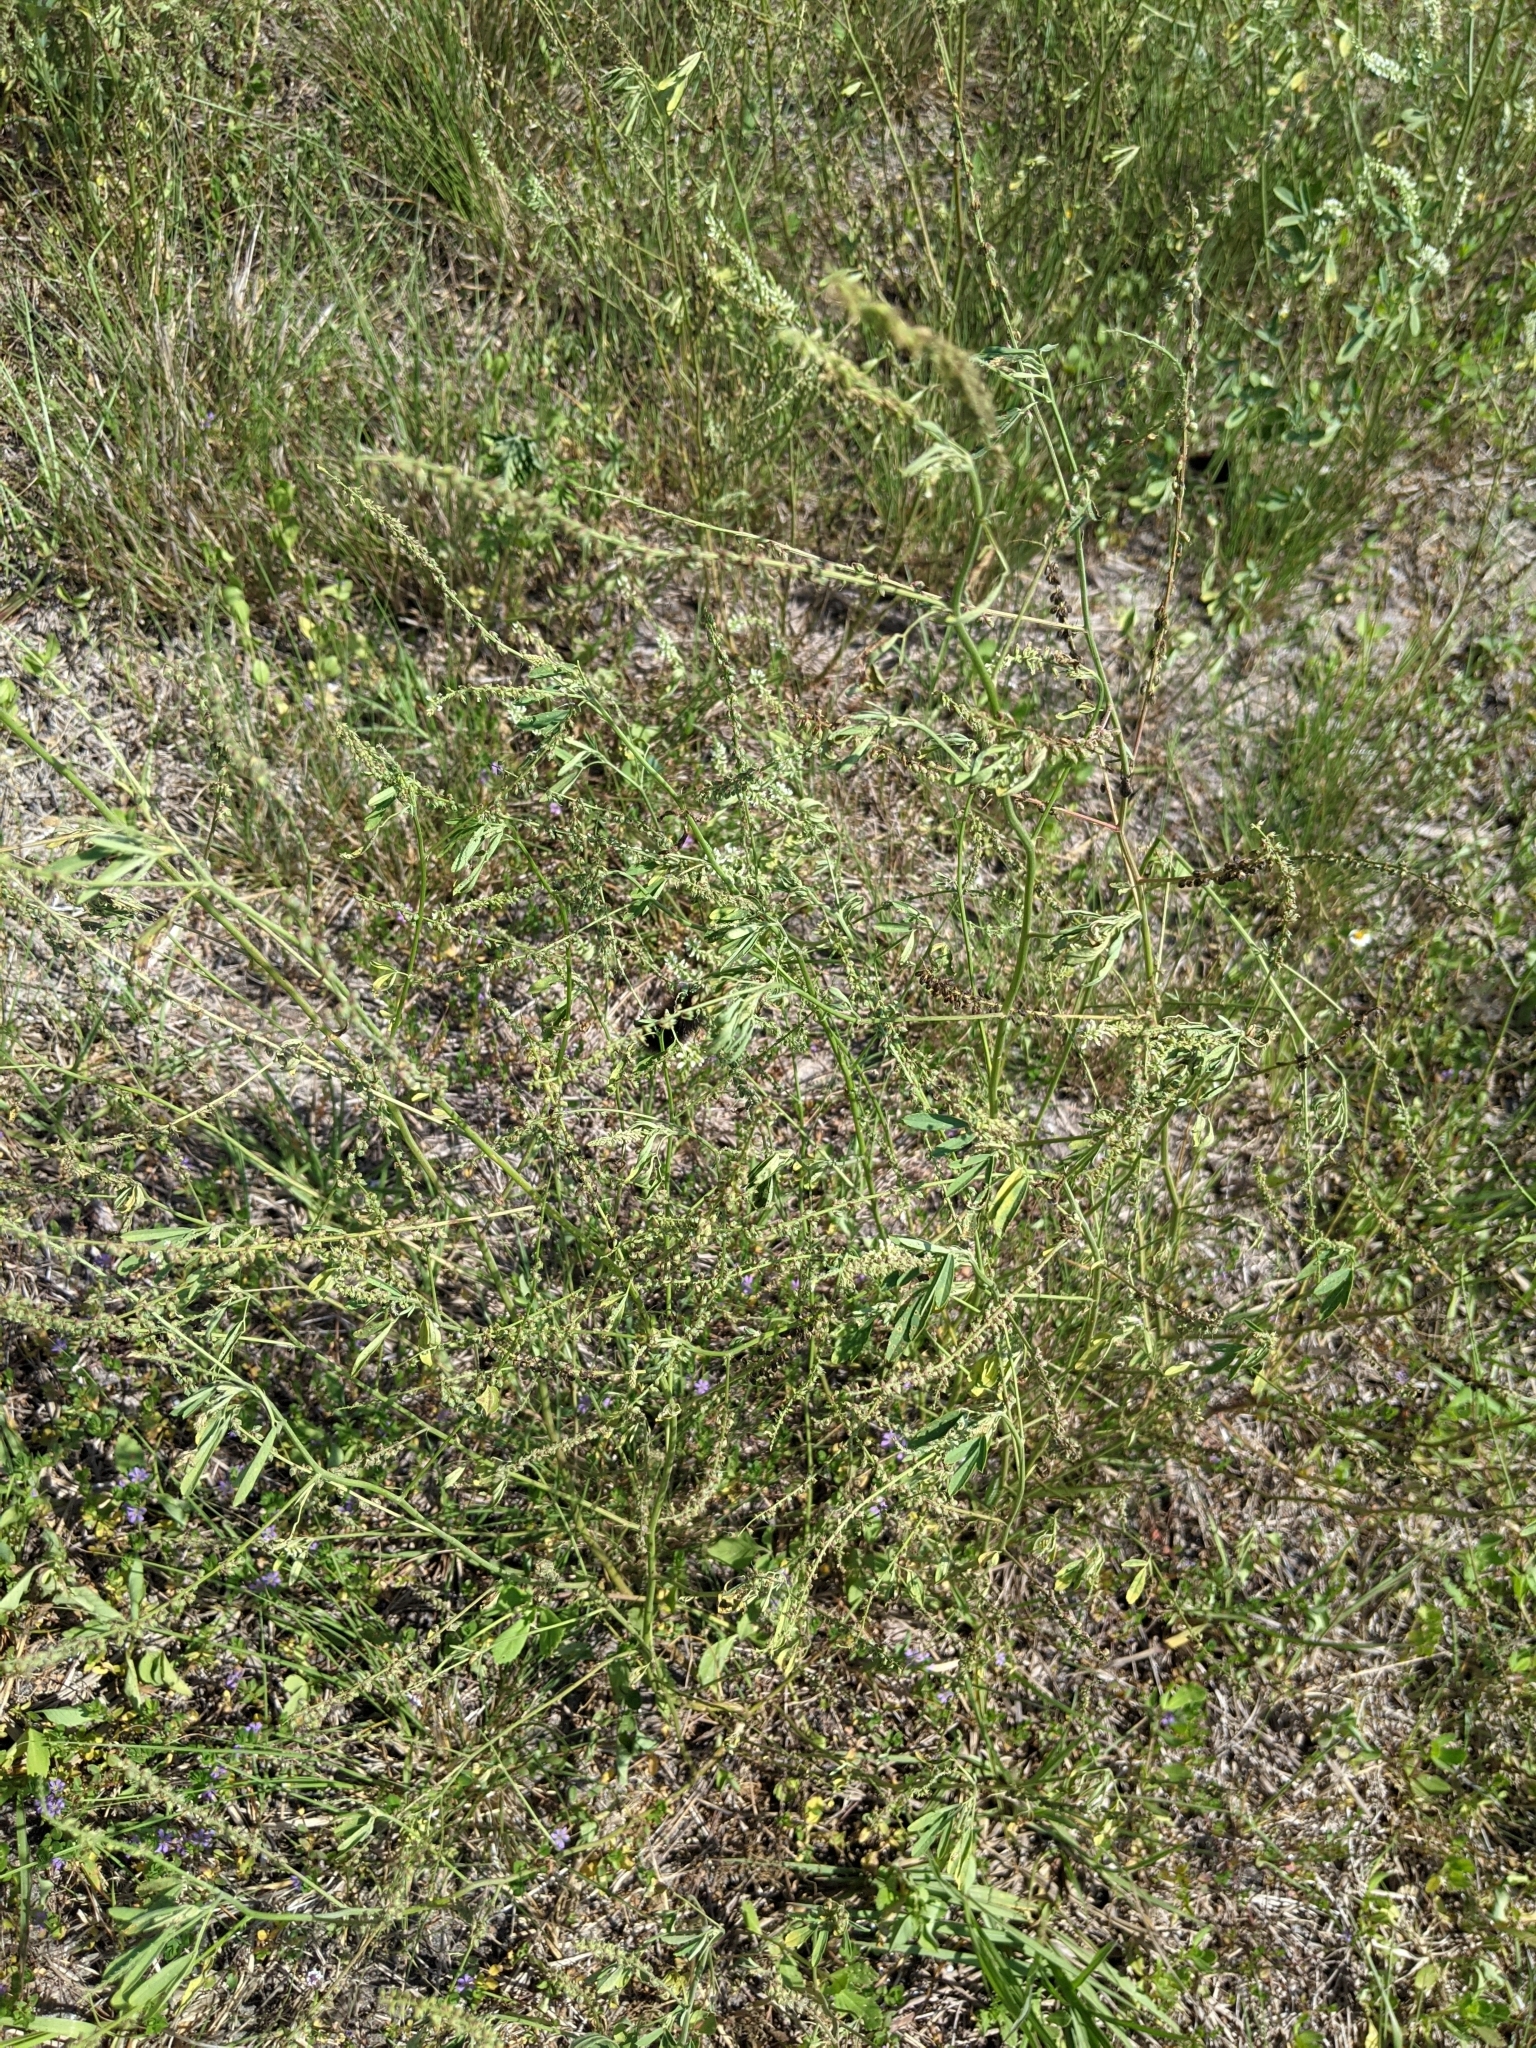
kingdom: Animalia
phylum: Arthropoda
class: Insecta
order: Lepidoptera
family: Erebidae
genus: Estigmene
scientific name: Estigmene acrea
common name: Salt marsh moth
